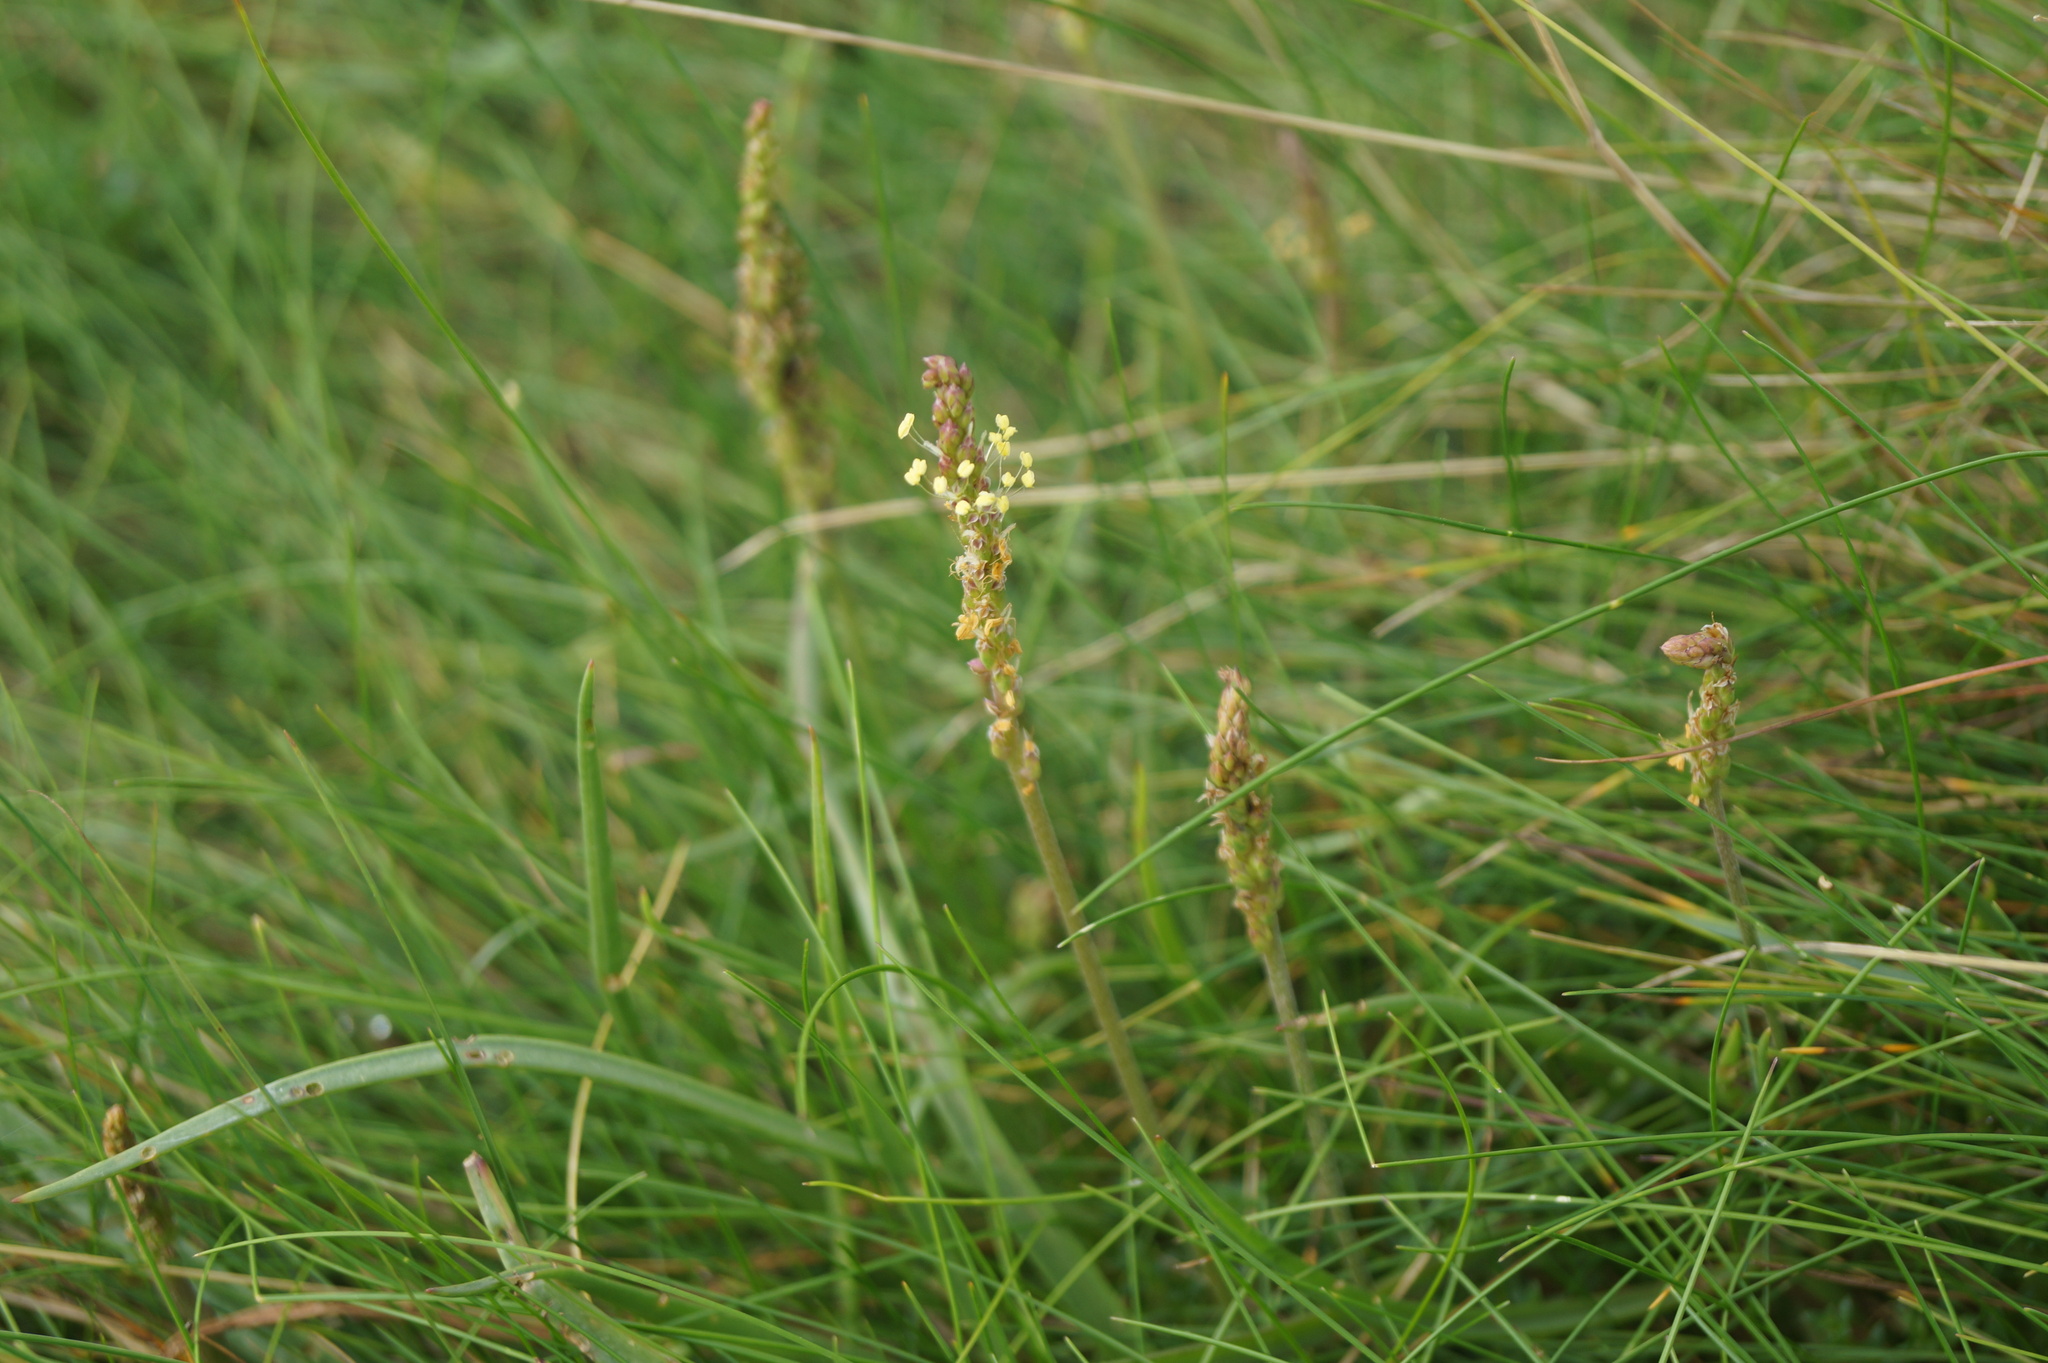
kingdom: Plantae
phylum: Tracheophyta
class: Magnoliopsida
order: Lamiales
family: Plantaginaceae
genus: Plantago
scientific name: Plantago maritima
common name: Sea plantain
